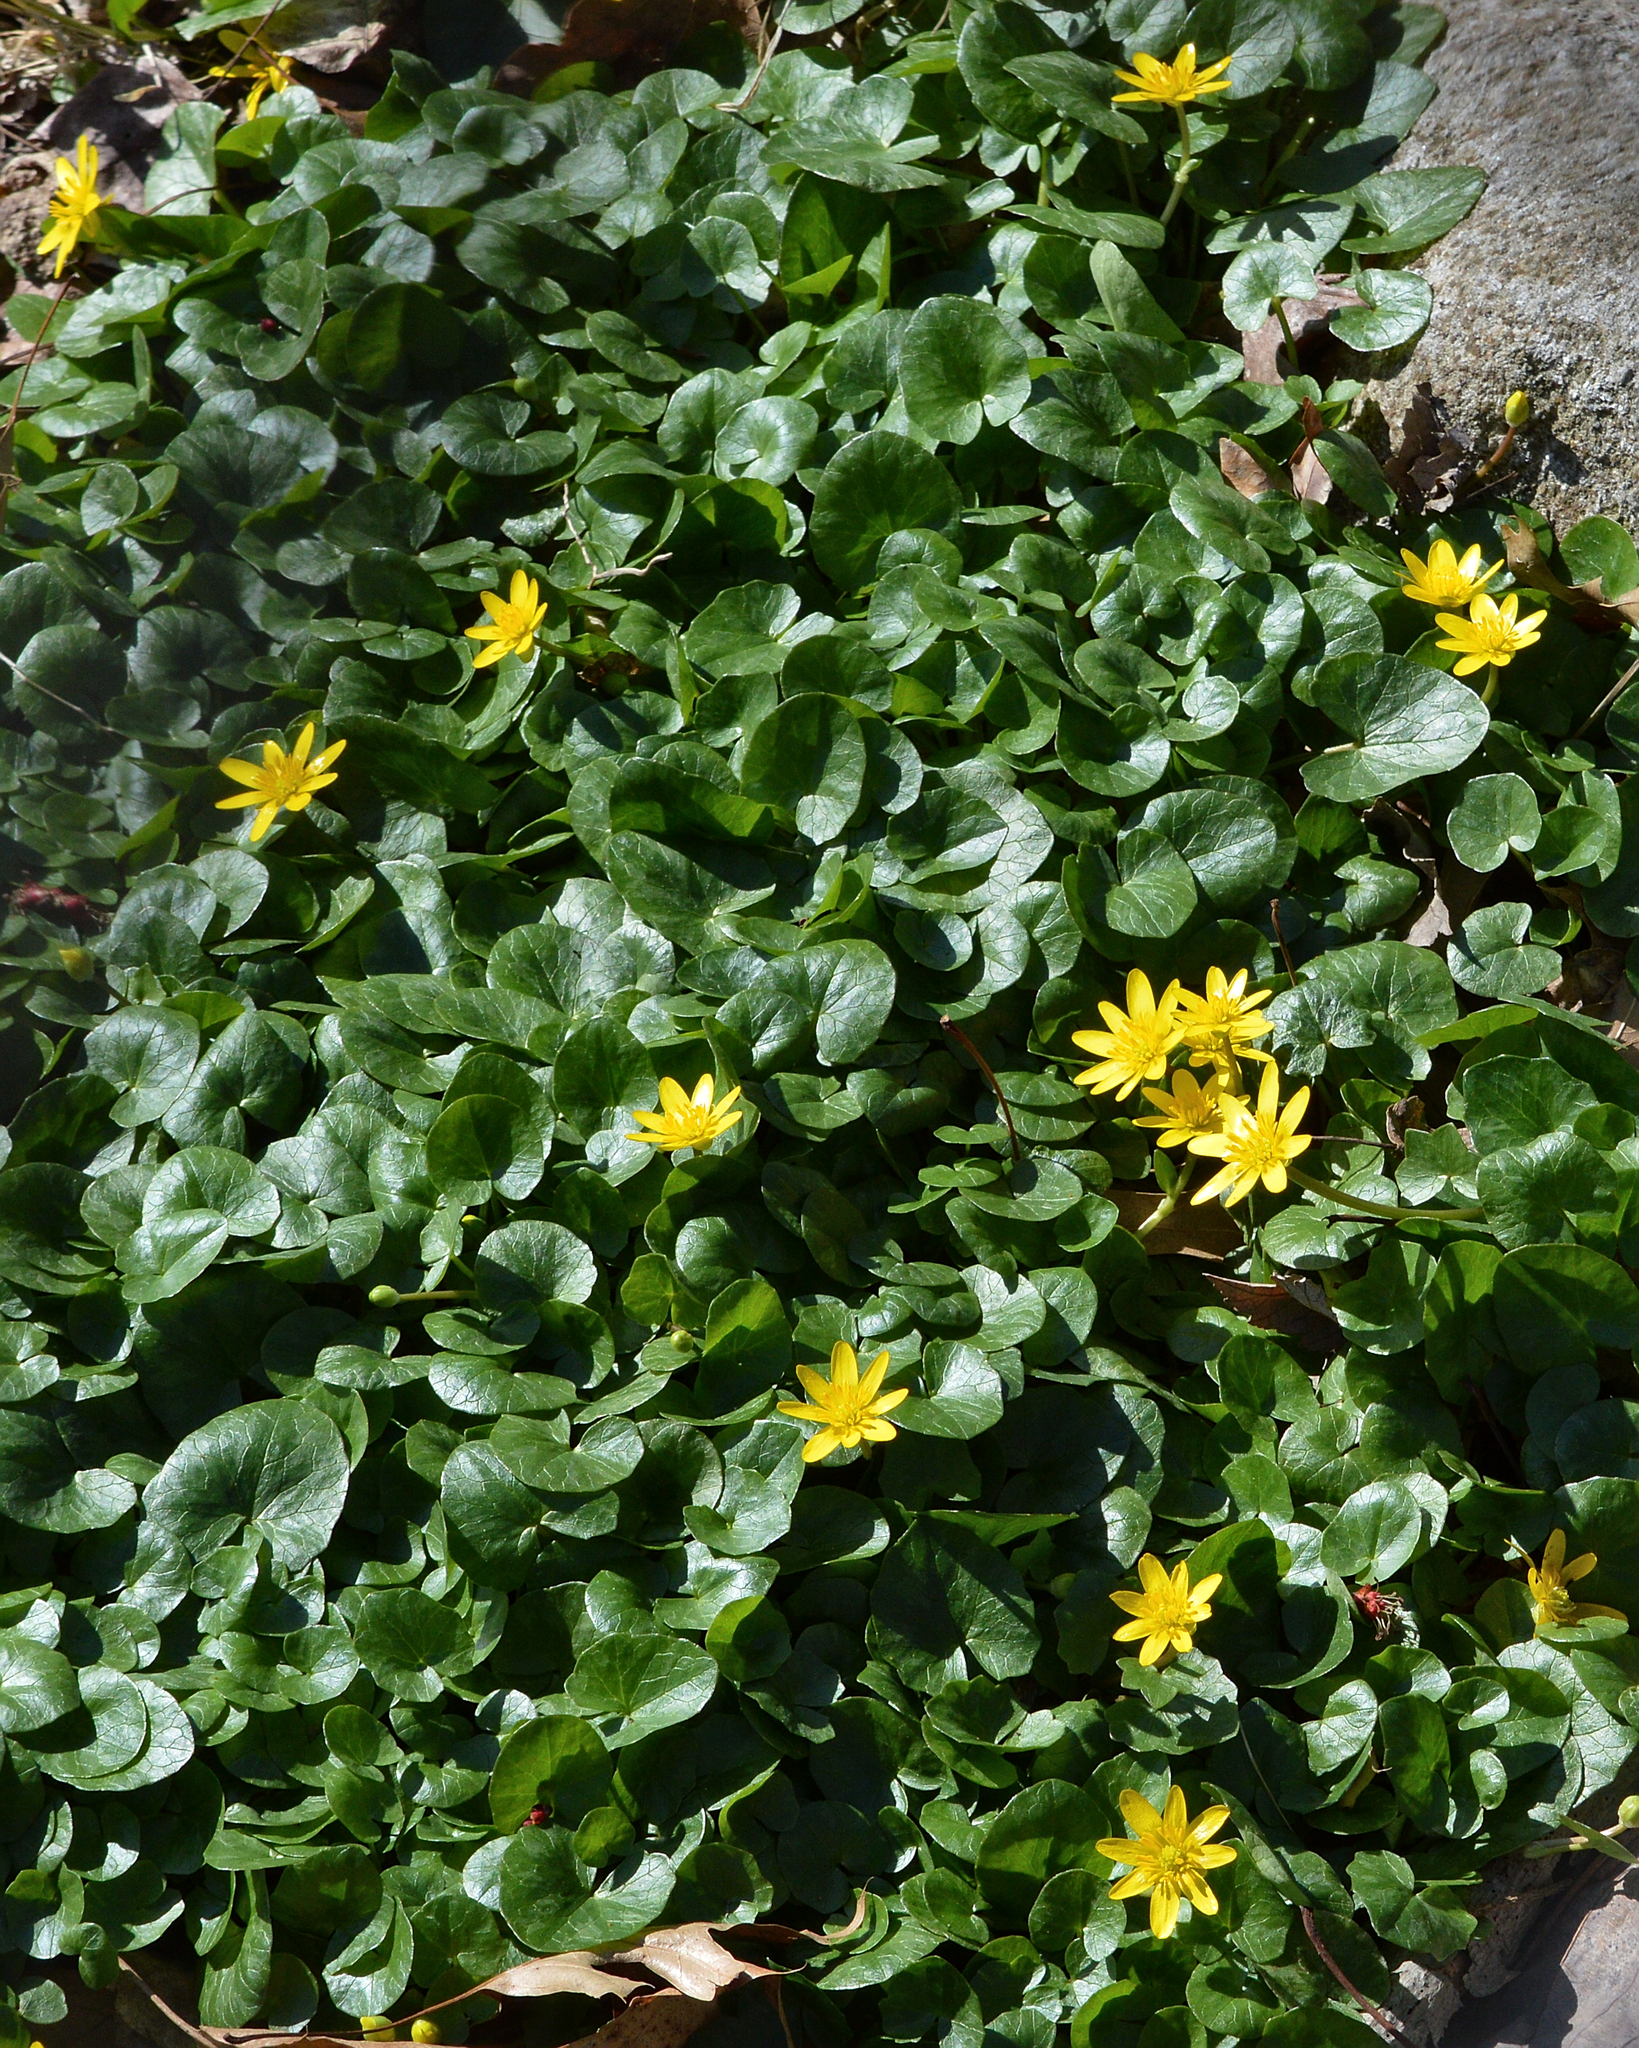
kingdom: Plantae
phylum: Tracheophyta
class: Magnoliopsida
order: Ranunculales
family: Ranunculaceae
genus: Ficaria
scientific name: Ficaria verna
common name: Lesser celandine
